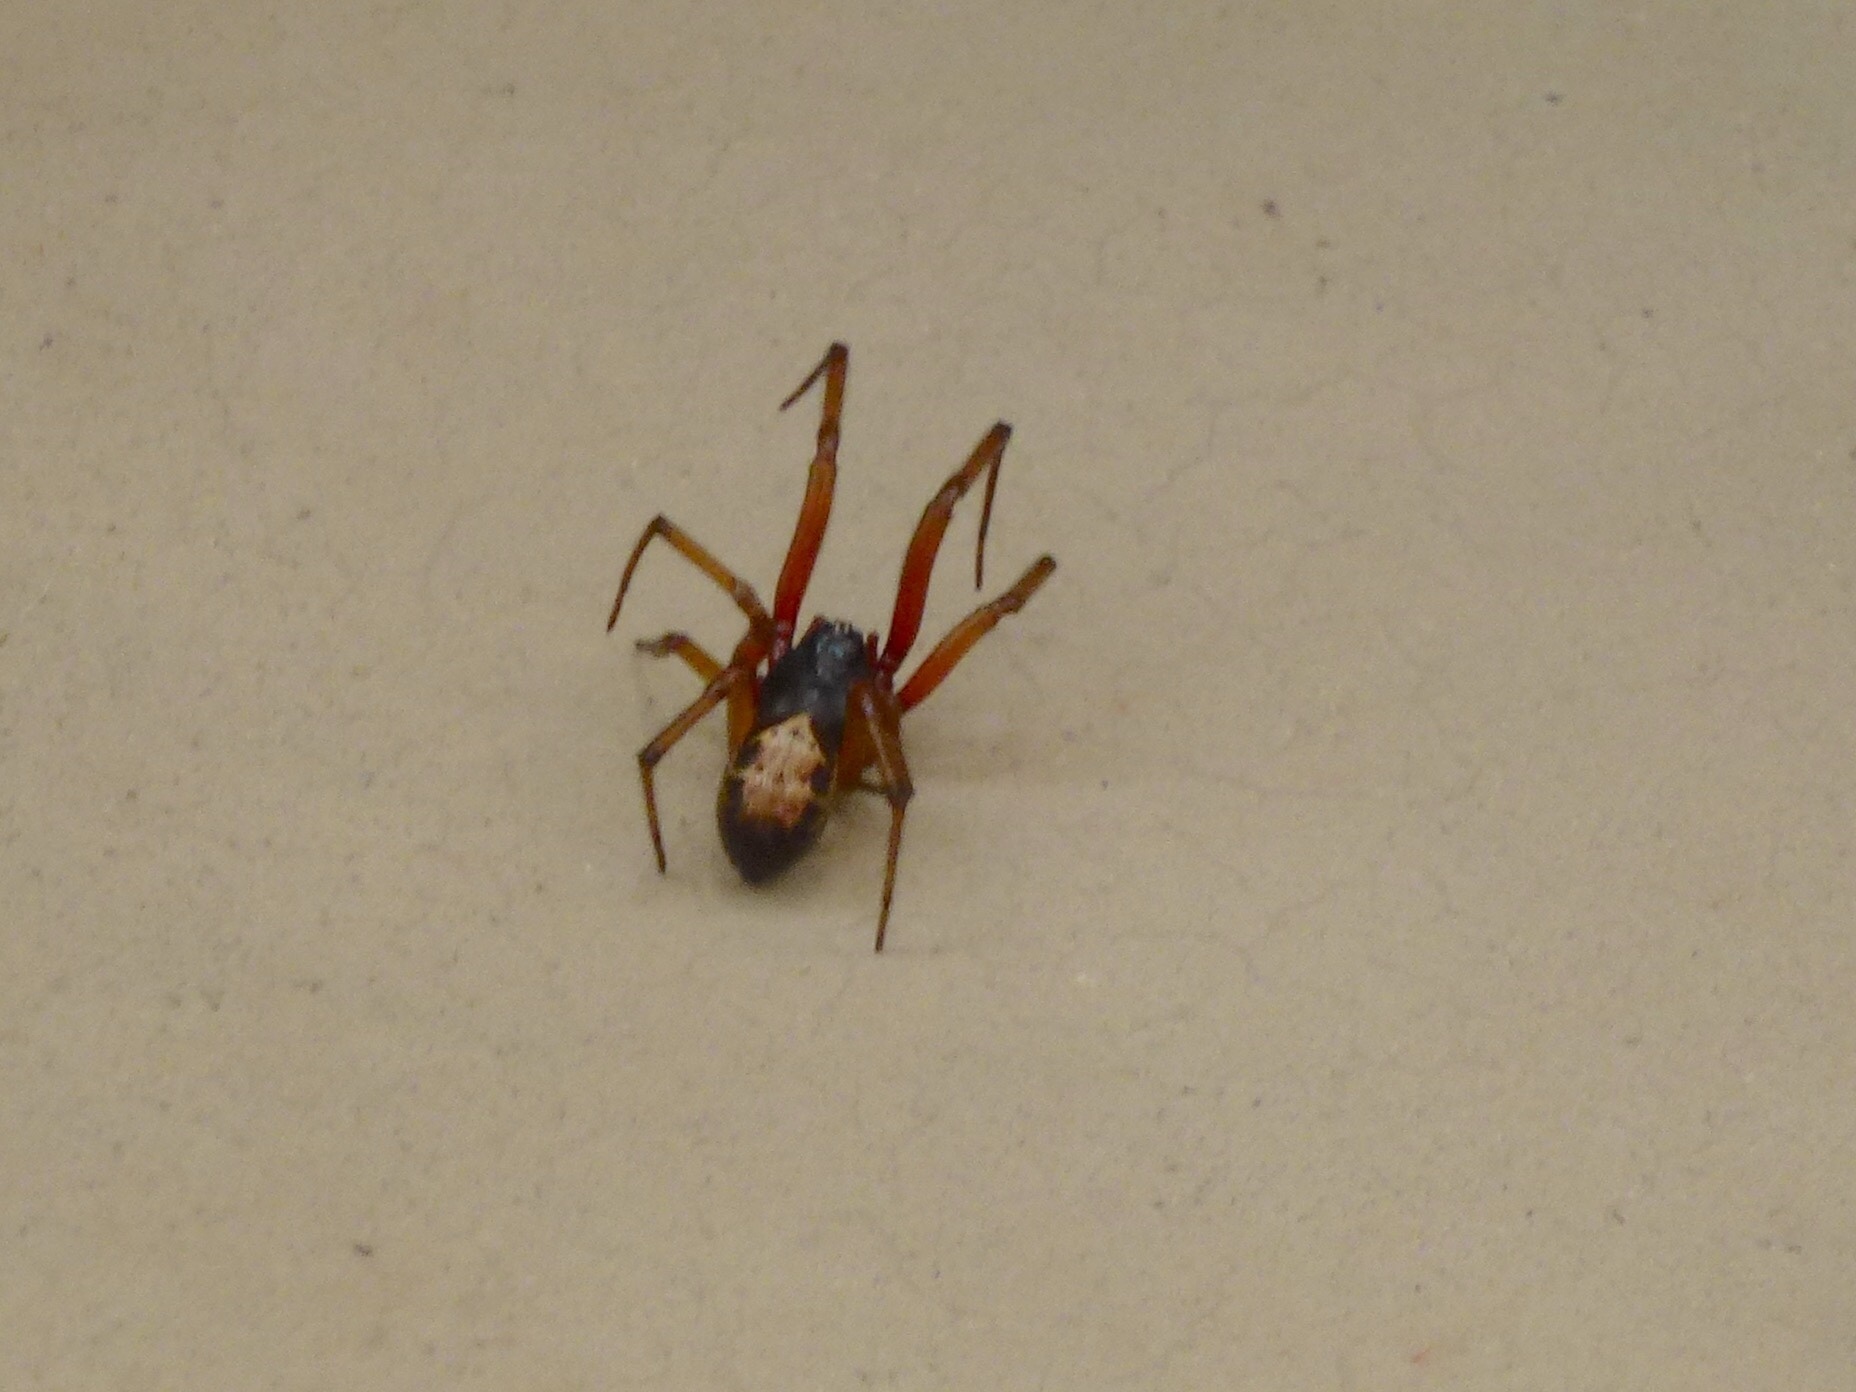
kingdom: Animalia
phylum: Arthropoda
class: Arachnida
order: Araneae
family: Theridiidae
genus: Steatoda
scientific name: Steatoda nobilis
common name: Cobweb weaver
